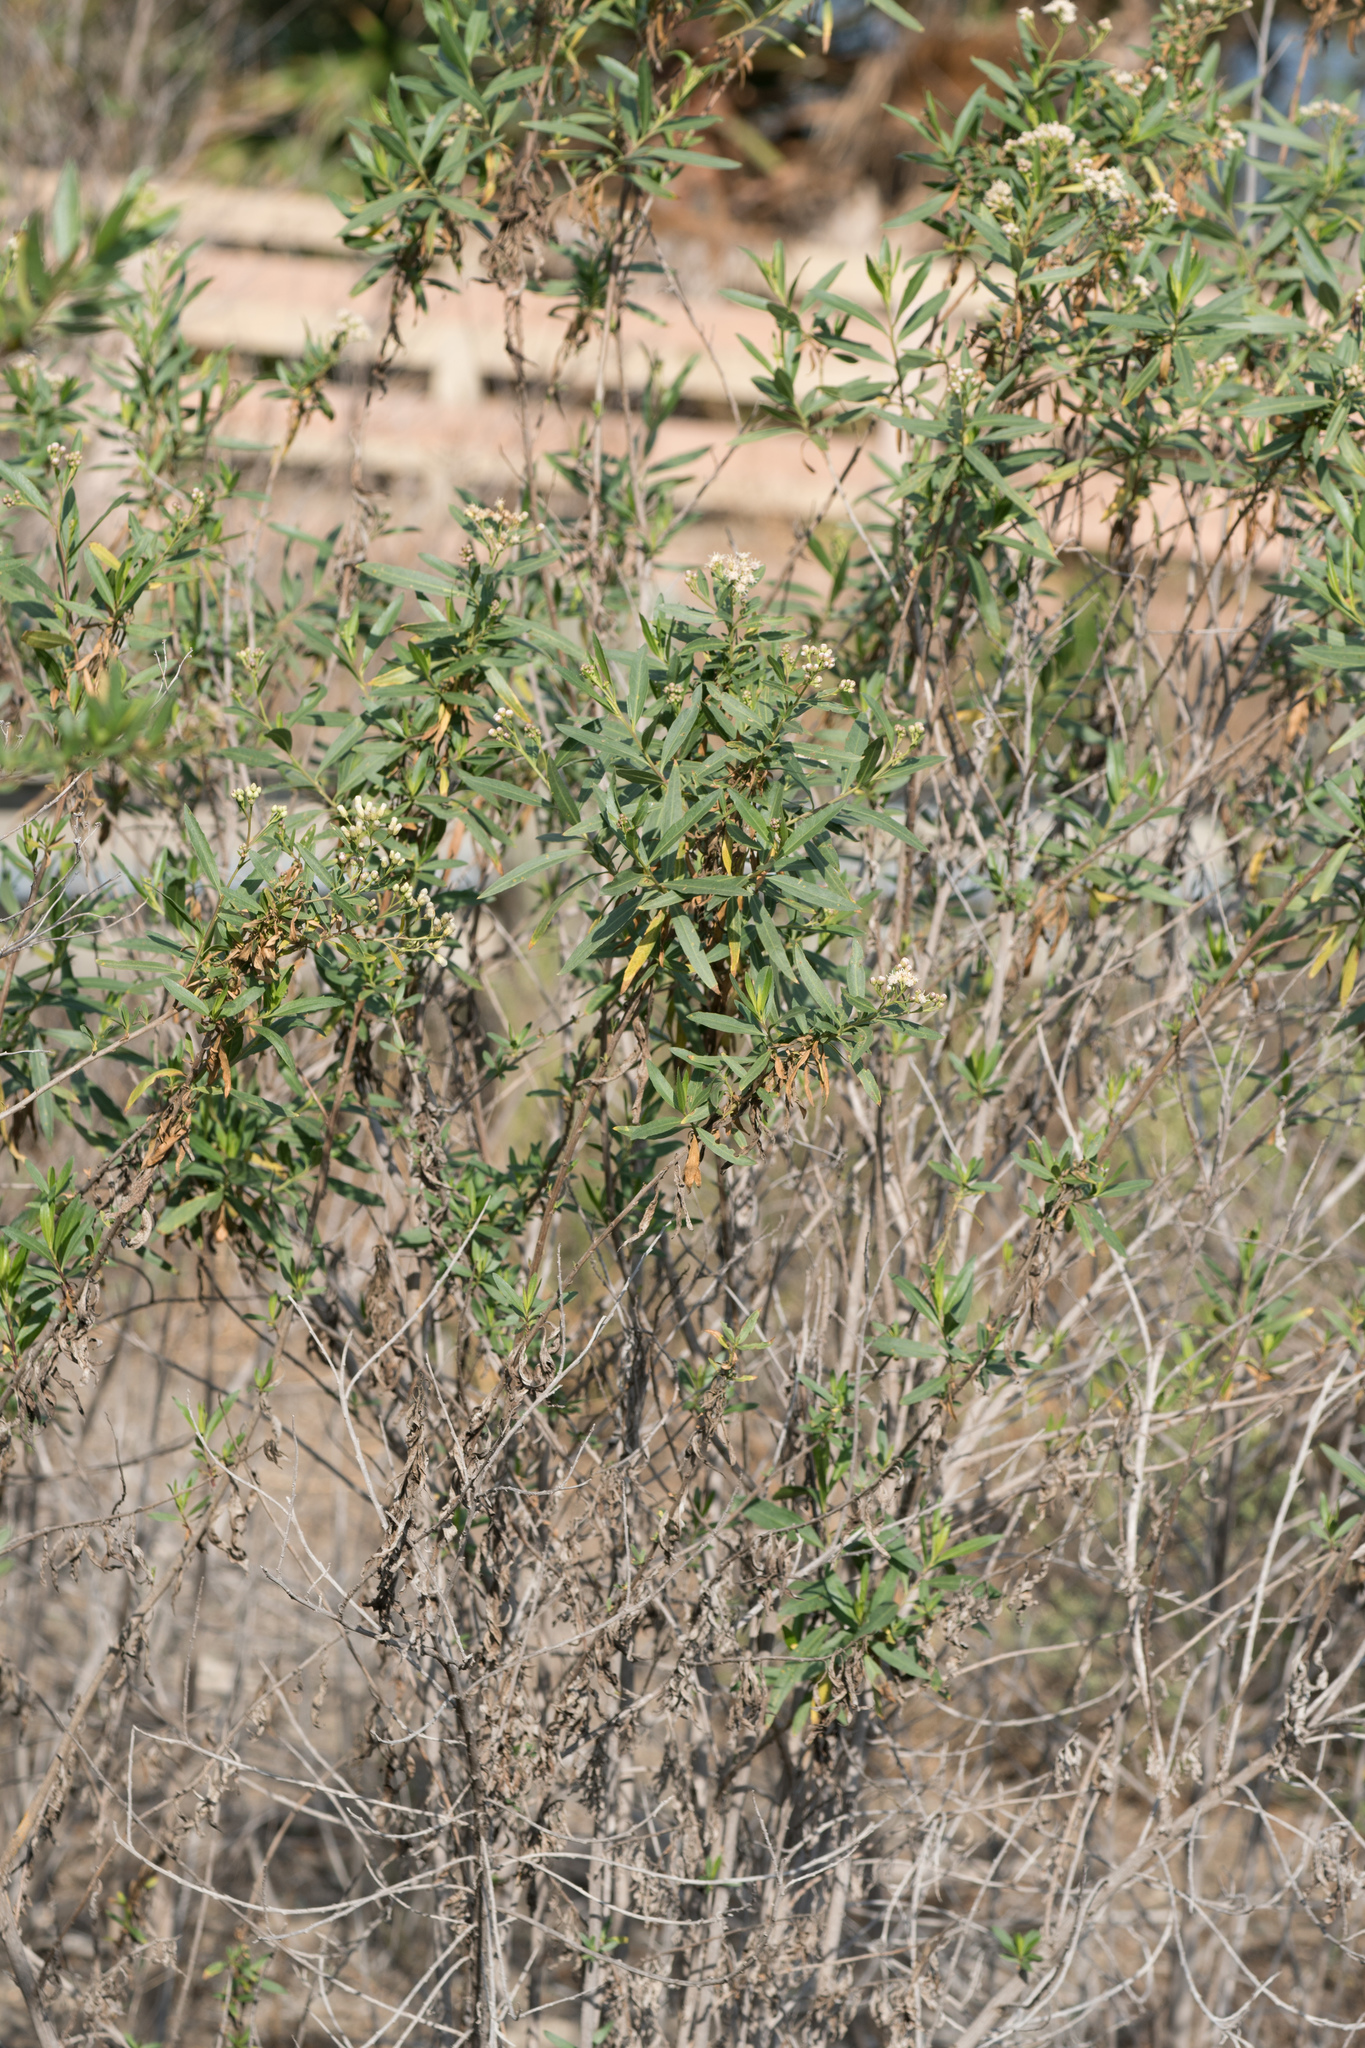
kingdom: Plantae
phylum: Tracheophyta
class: Magnoliopsida
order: Asterales
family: Asteraceae
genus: Baccharis
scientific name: Baccharis salicifolia
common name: Sticky baccharis
